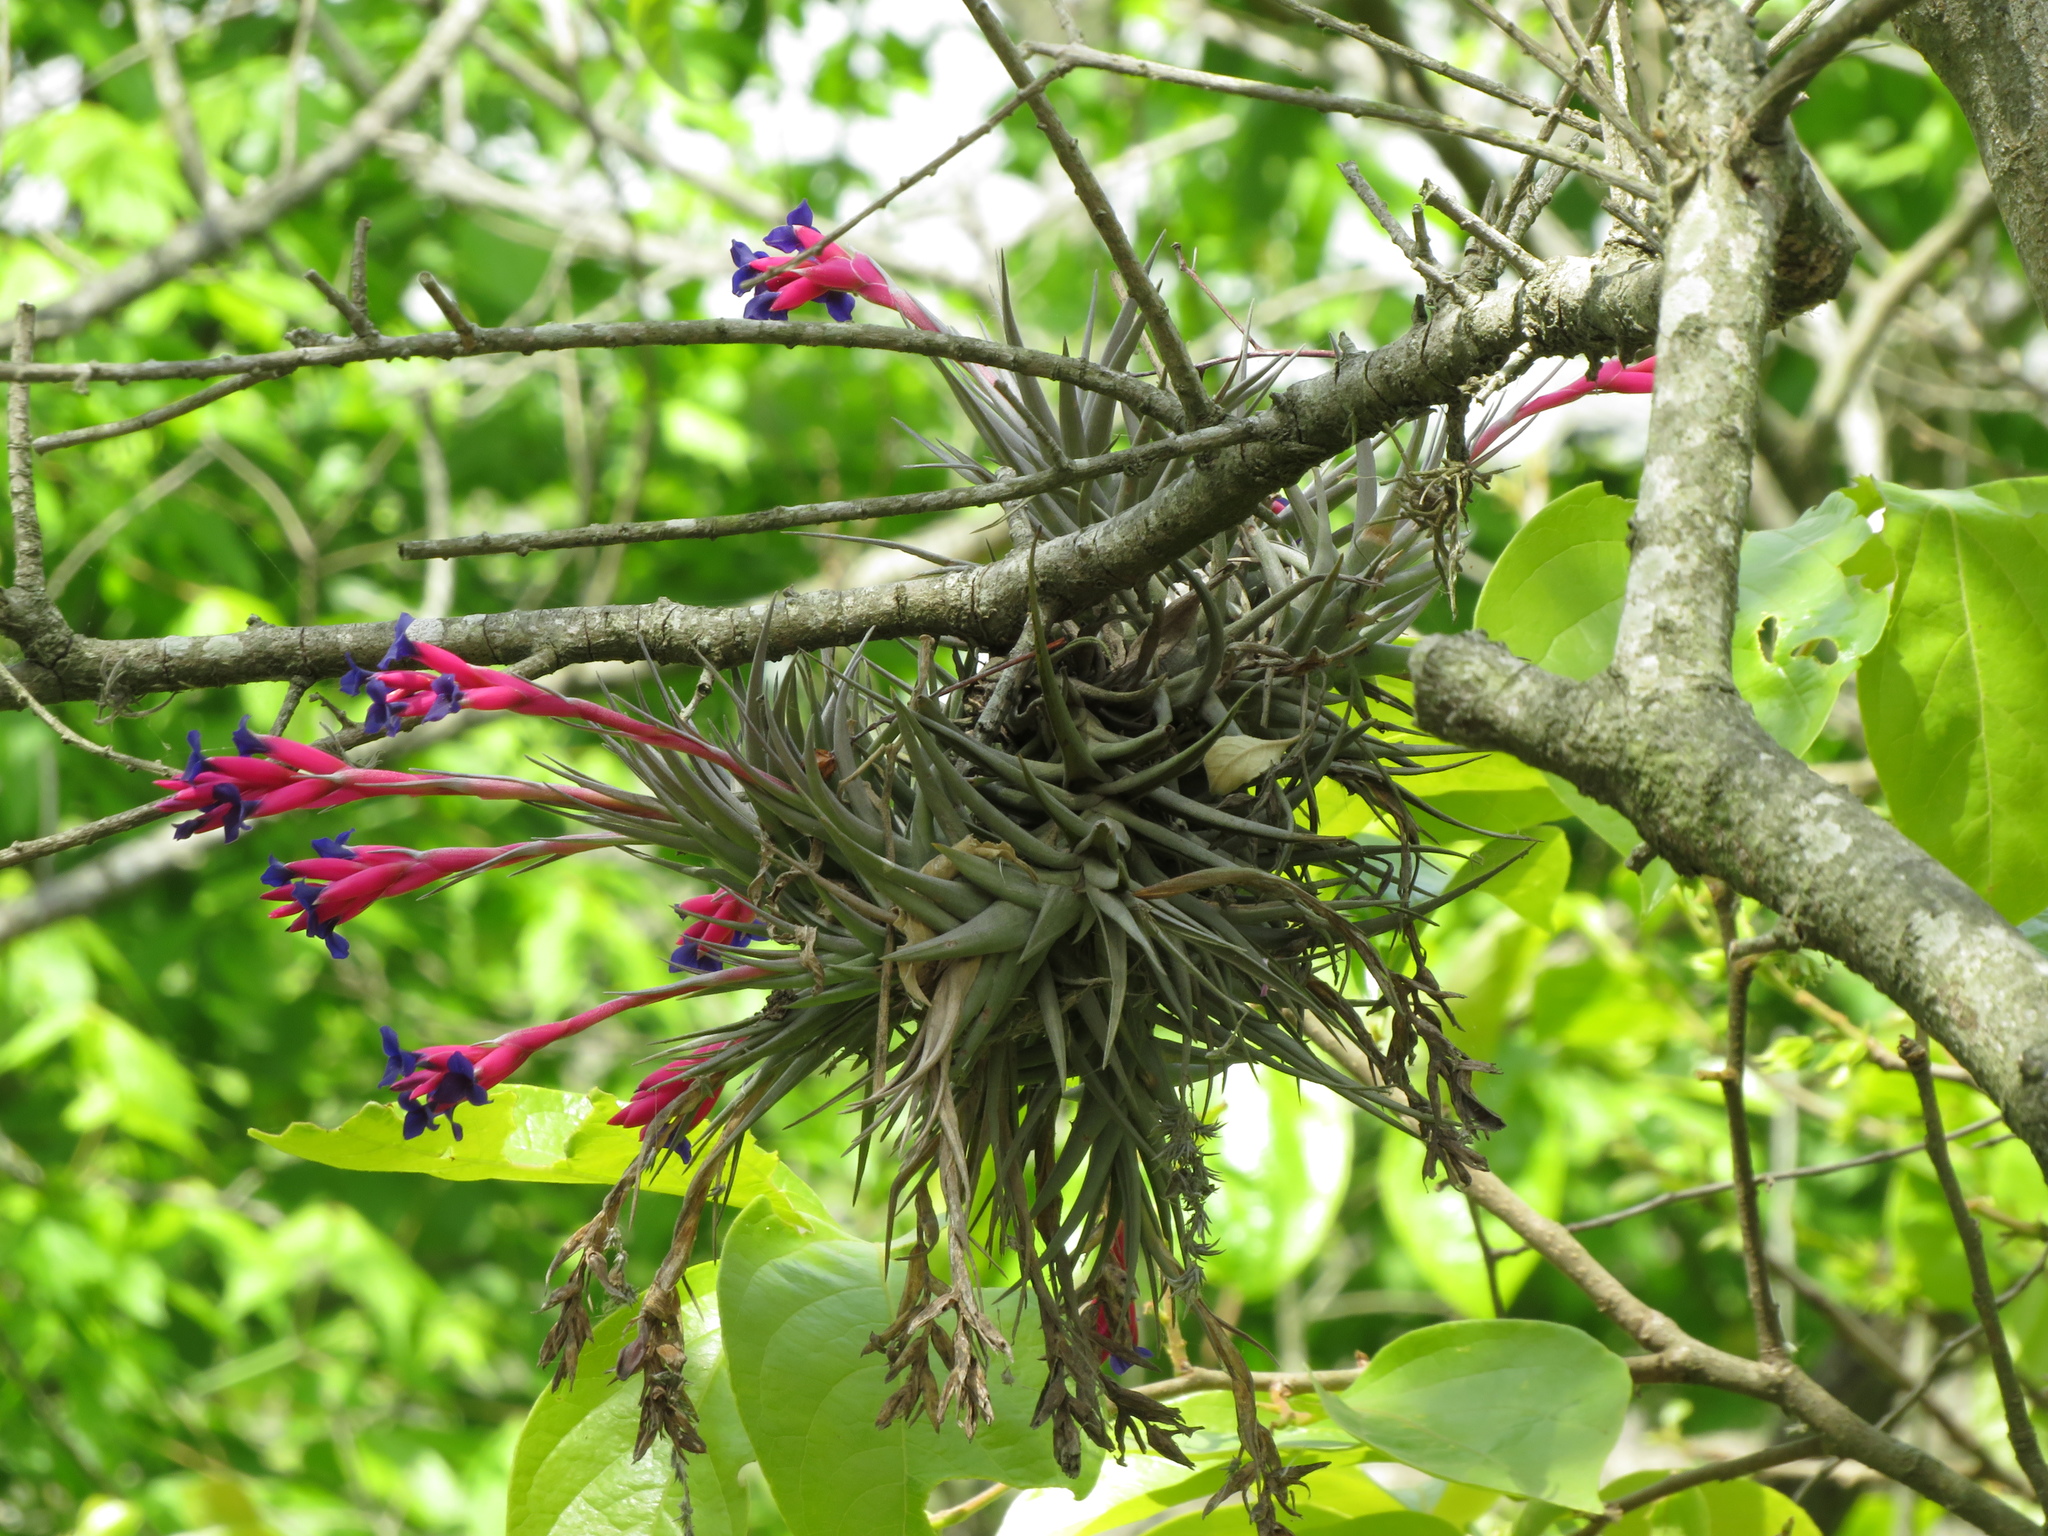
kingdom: Plantae
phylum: Tracheophyta
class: Liliopsida
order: Poales
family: Bromeliaceae
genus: Tillandsia
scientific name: Tillandsia aeranthos
